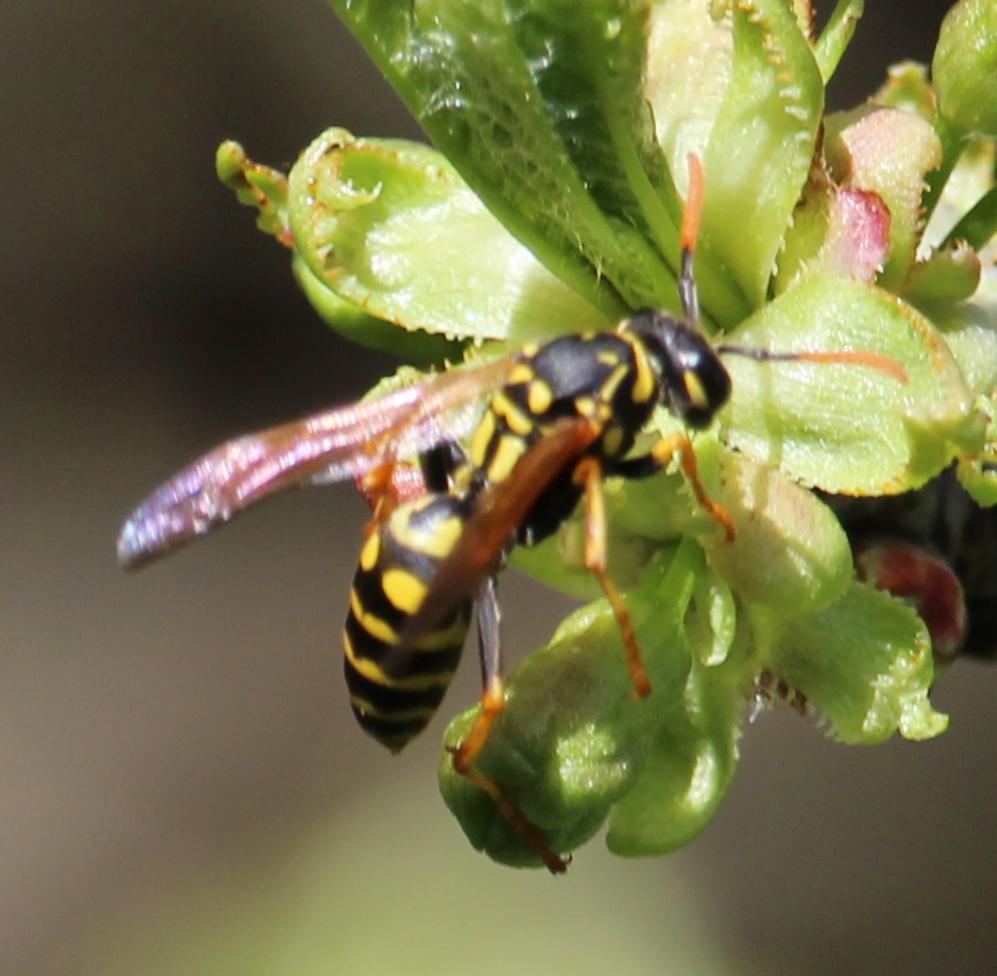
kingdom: Animalia
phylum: Arthropoda
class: Insecta
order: Hymenoptera
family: Eumenidae
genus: Polistes
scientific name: Polistes dominula
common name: Paper wasp
